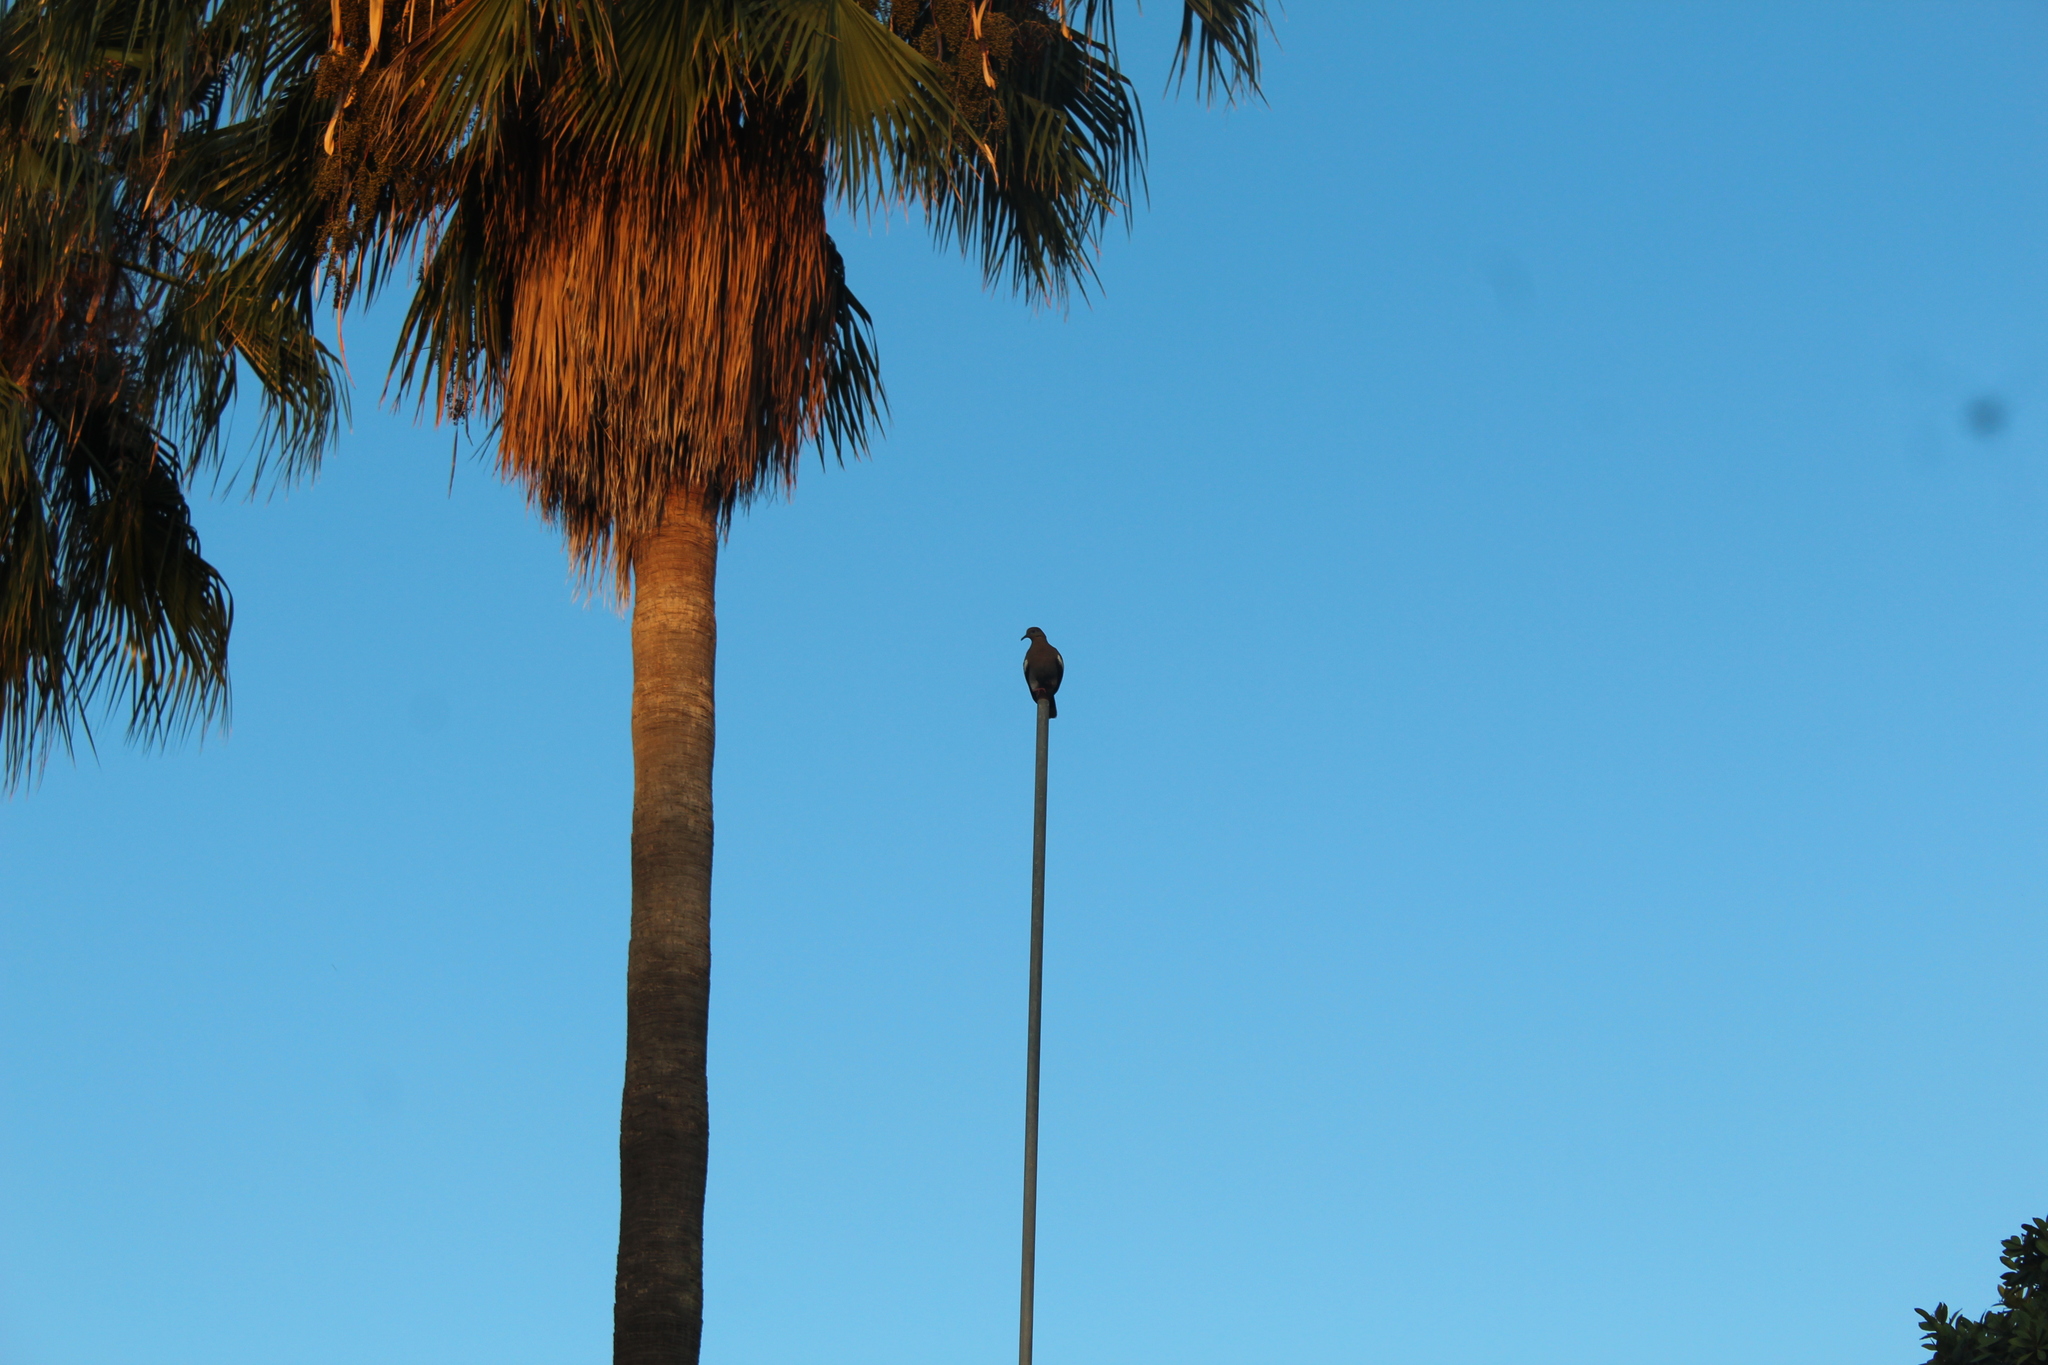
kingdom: Animalia
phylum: Chordata
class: Aves
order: Columbiformes
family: Columbidae
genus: Zenaida
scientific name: Zenaida asiatica
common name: White-winged dove
